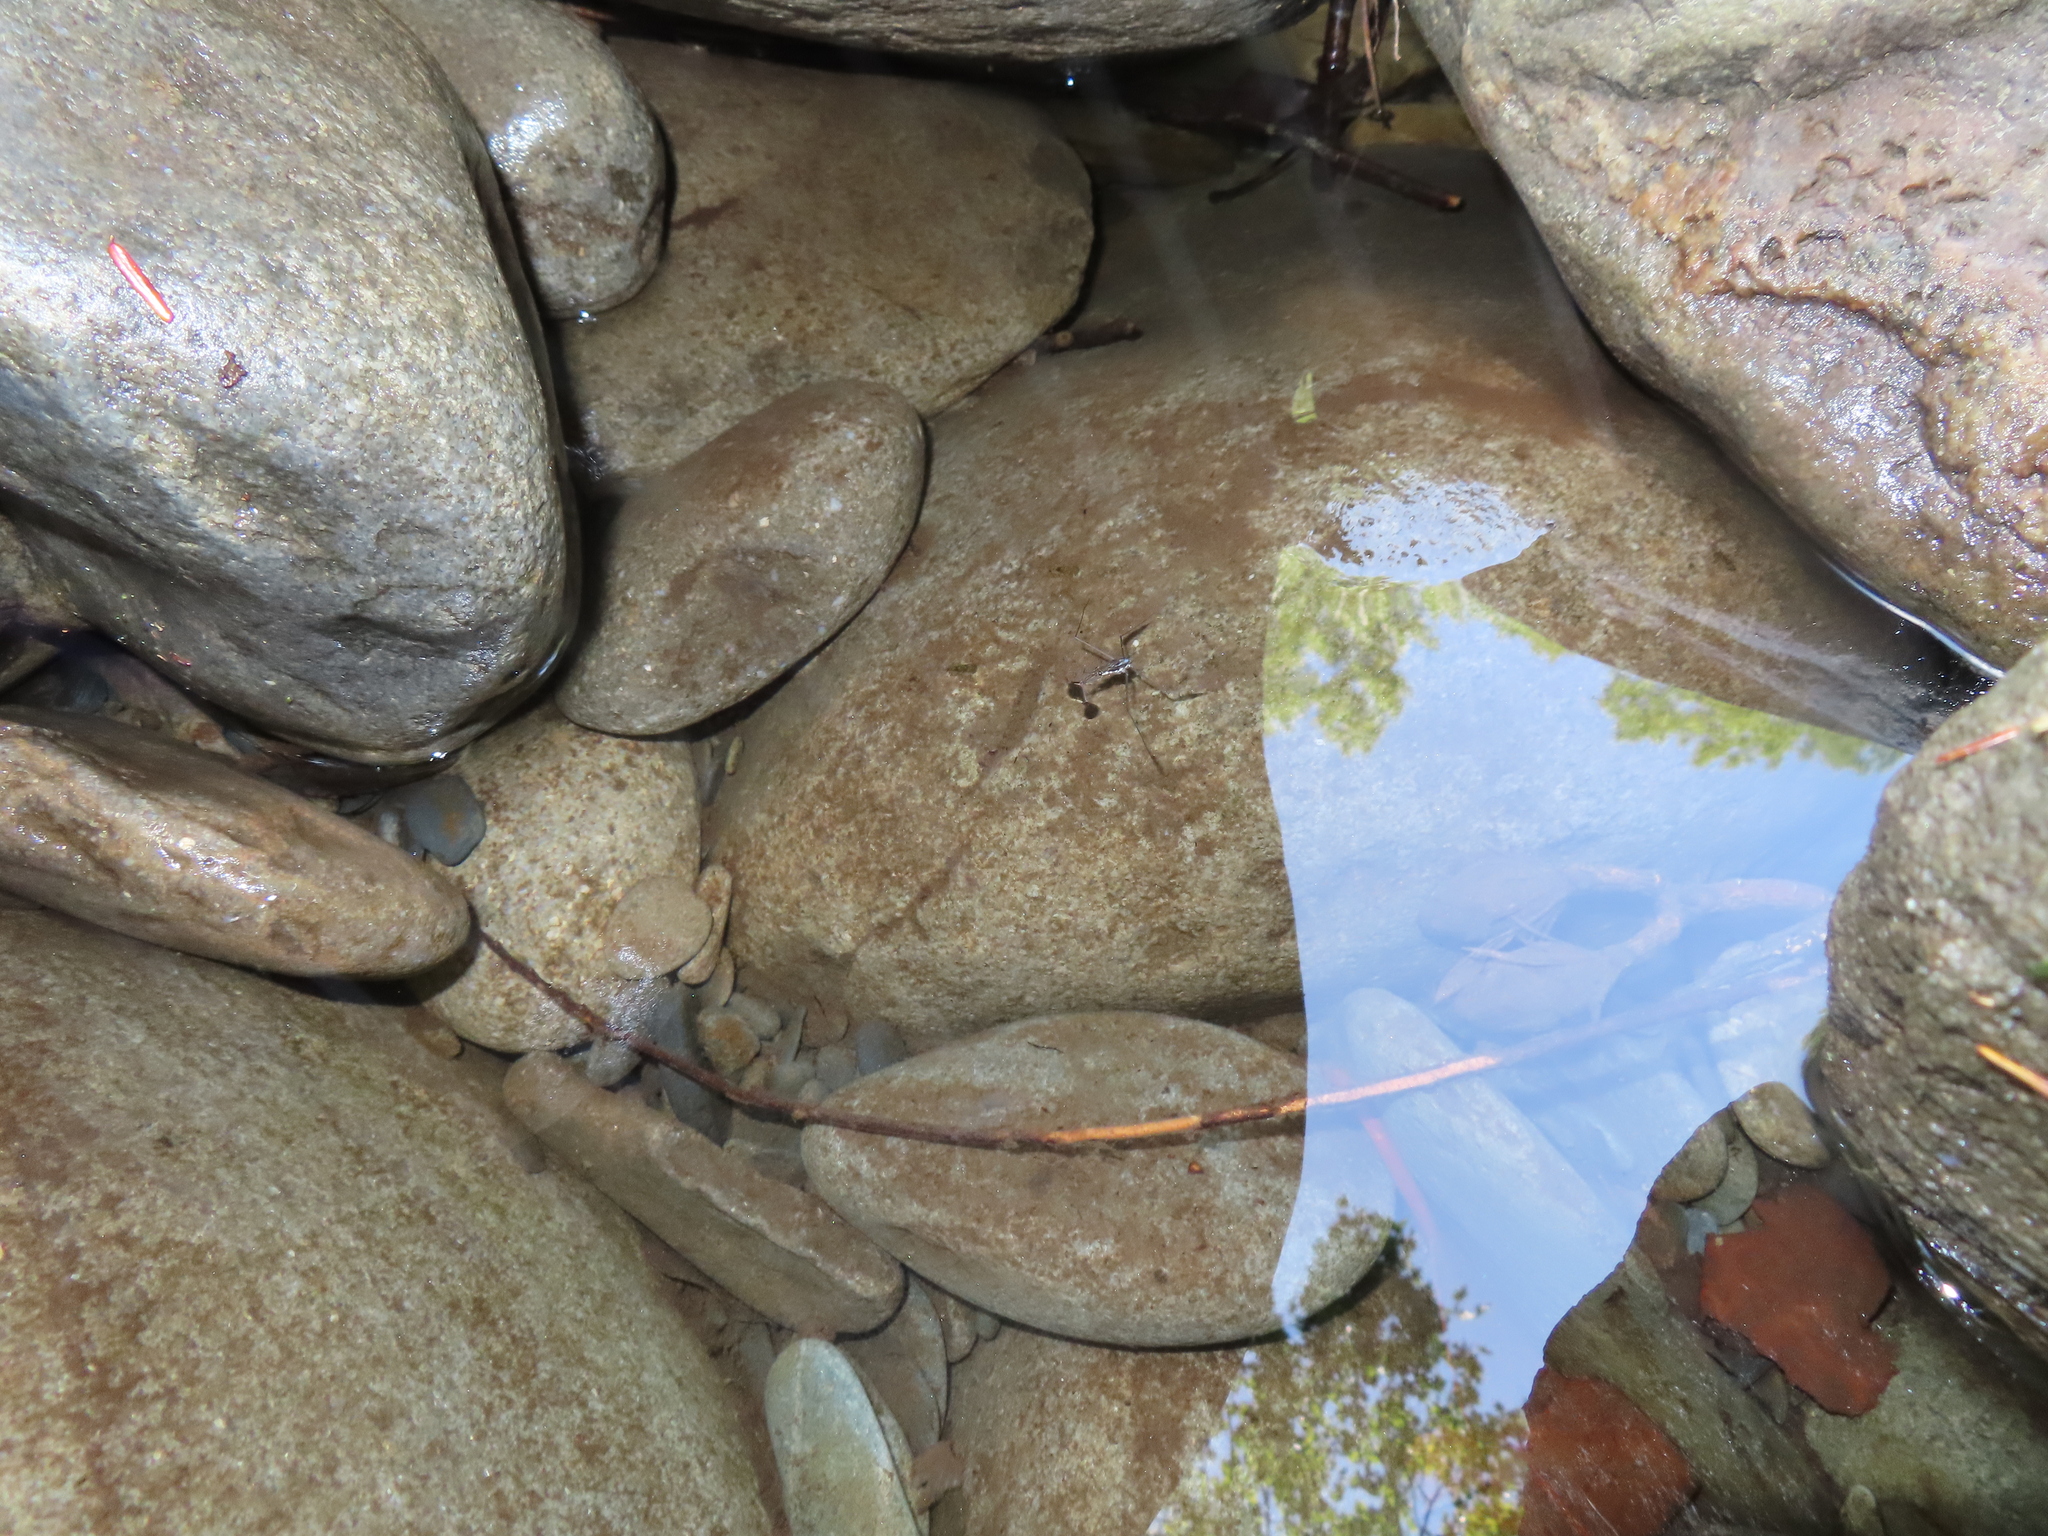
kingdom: Animalia
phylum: Arthropoda
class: Insecta
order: Hemiptera
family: Gerridae
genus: Aquarius
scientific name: Aquarius
